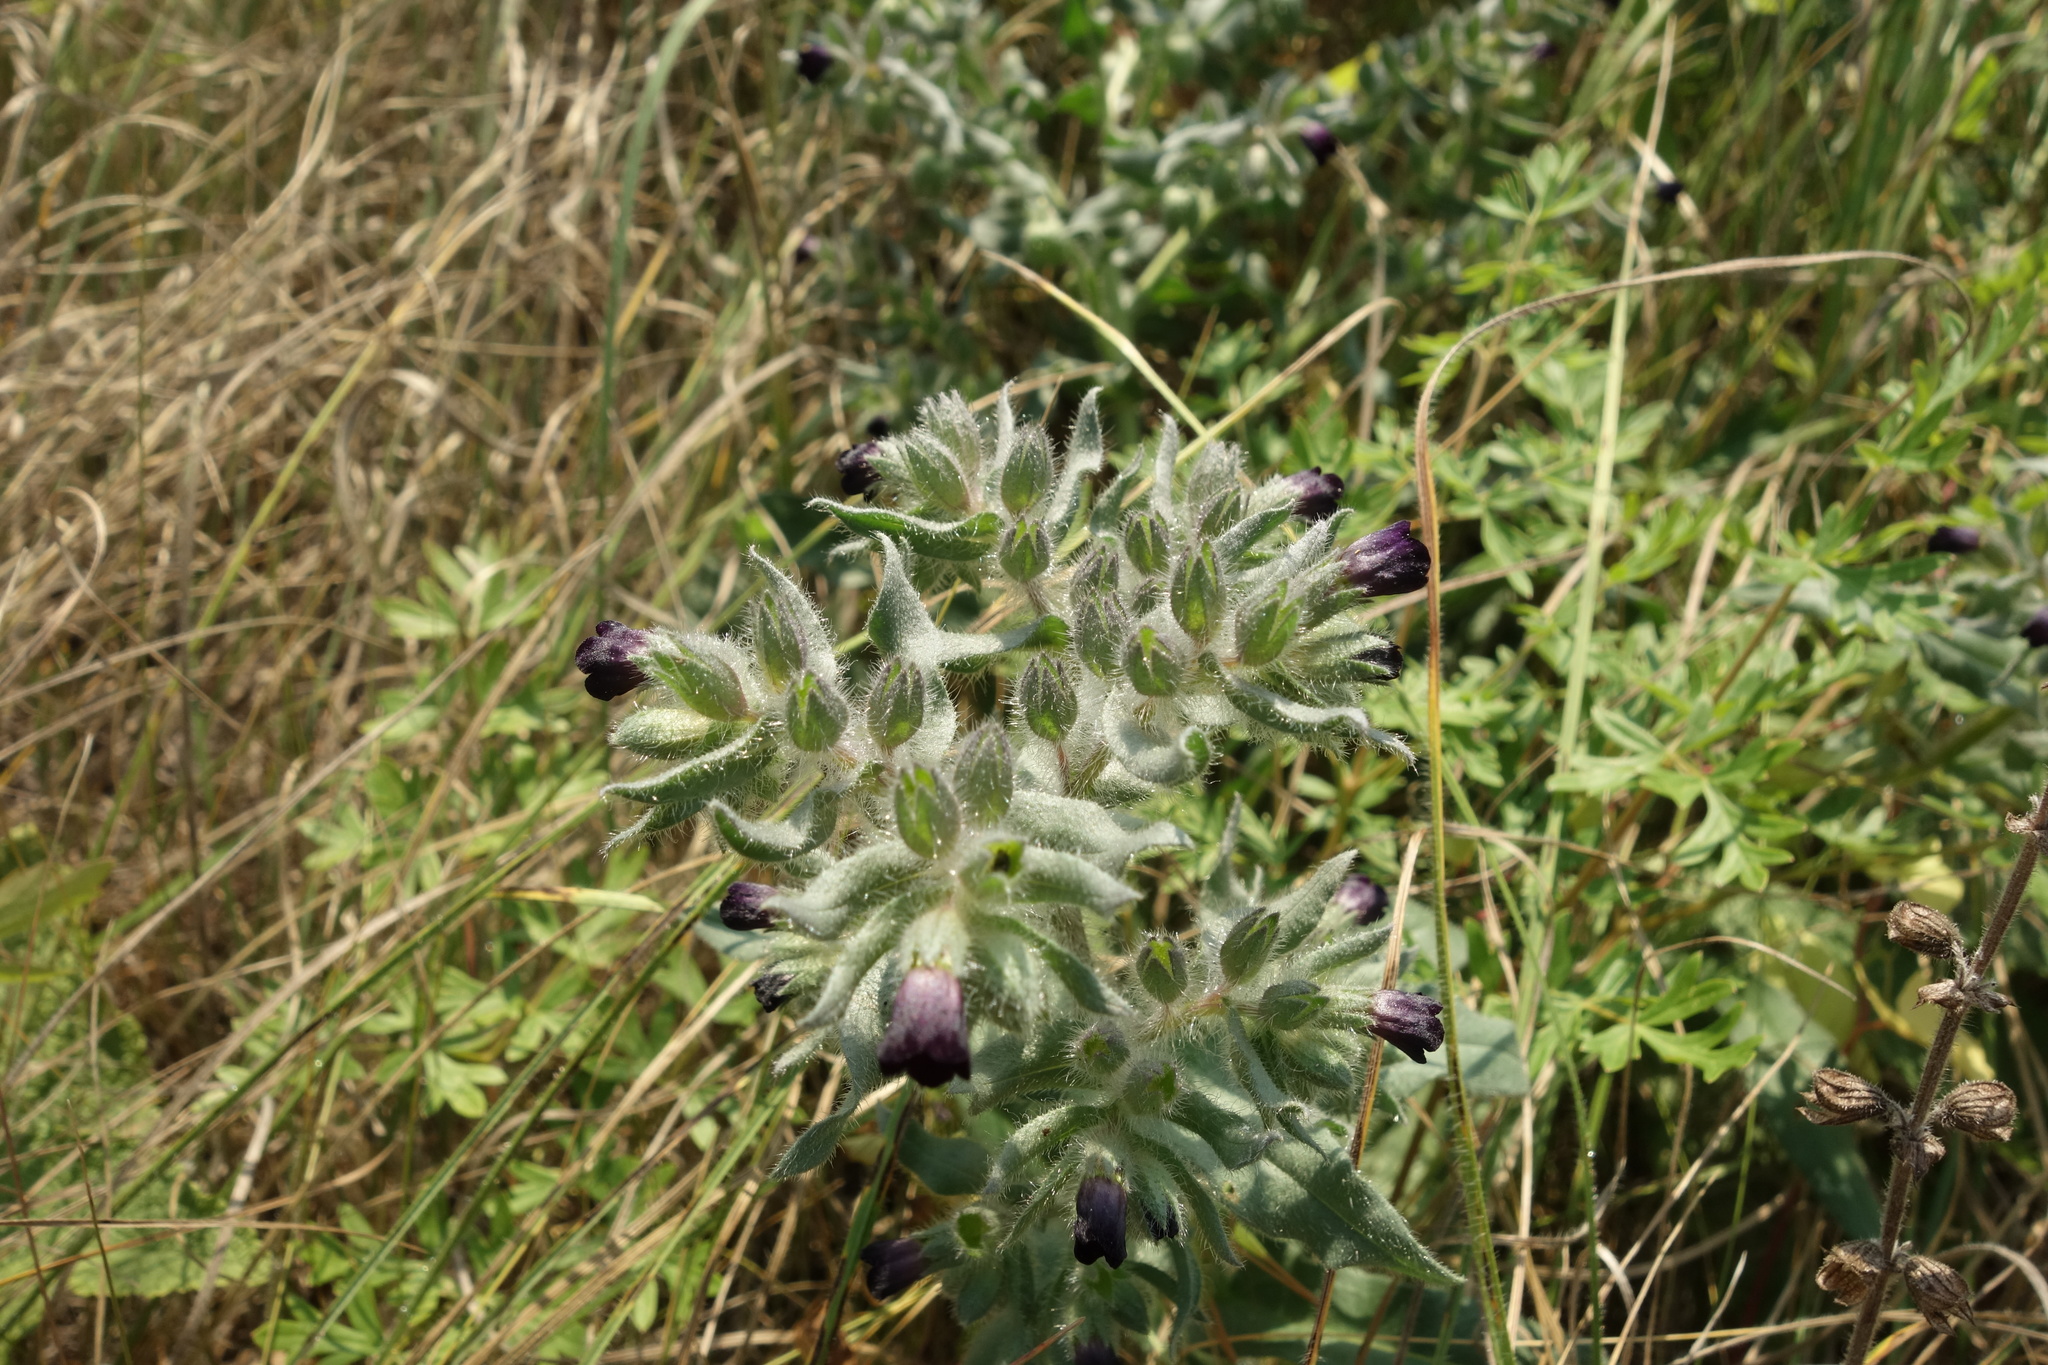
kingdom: Plantae
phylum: Tracheophyta
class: Magnoliopsida
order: Boraginales
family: Boraginaceae
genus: Nonea
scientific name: Nonea pulla
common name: Brown nonea
